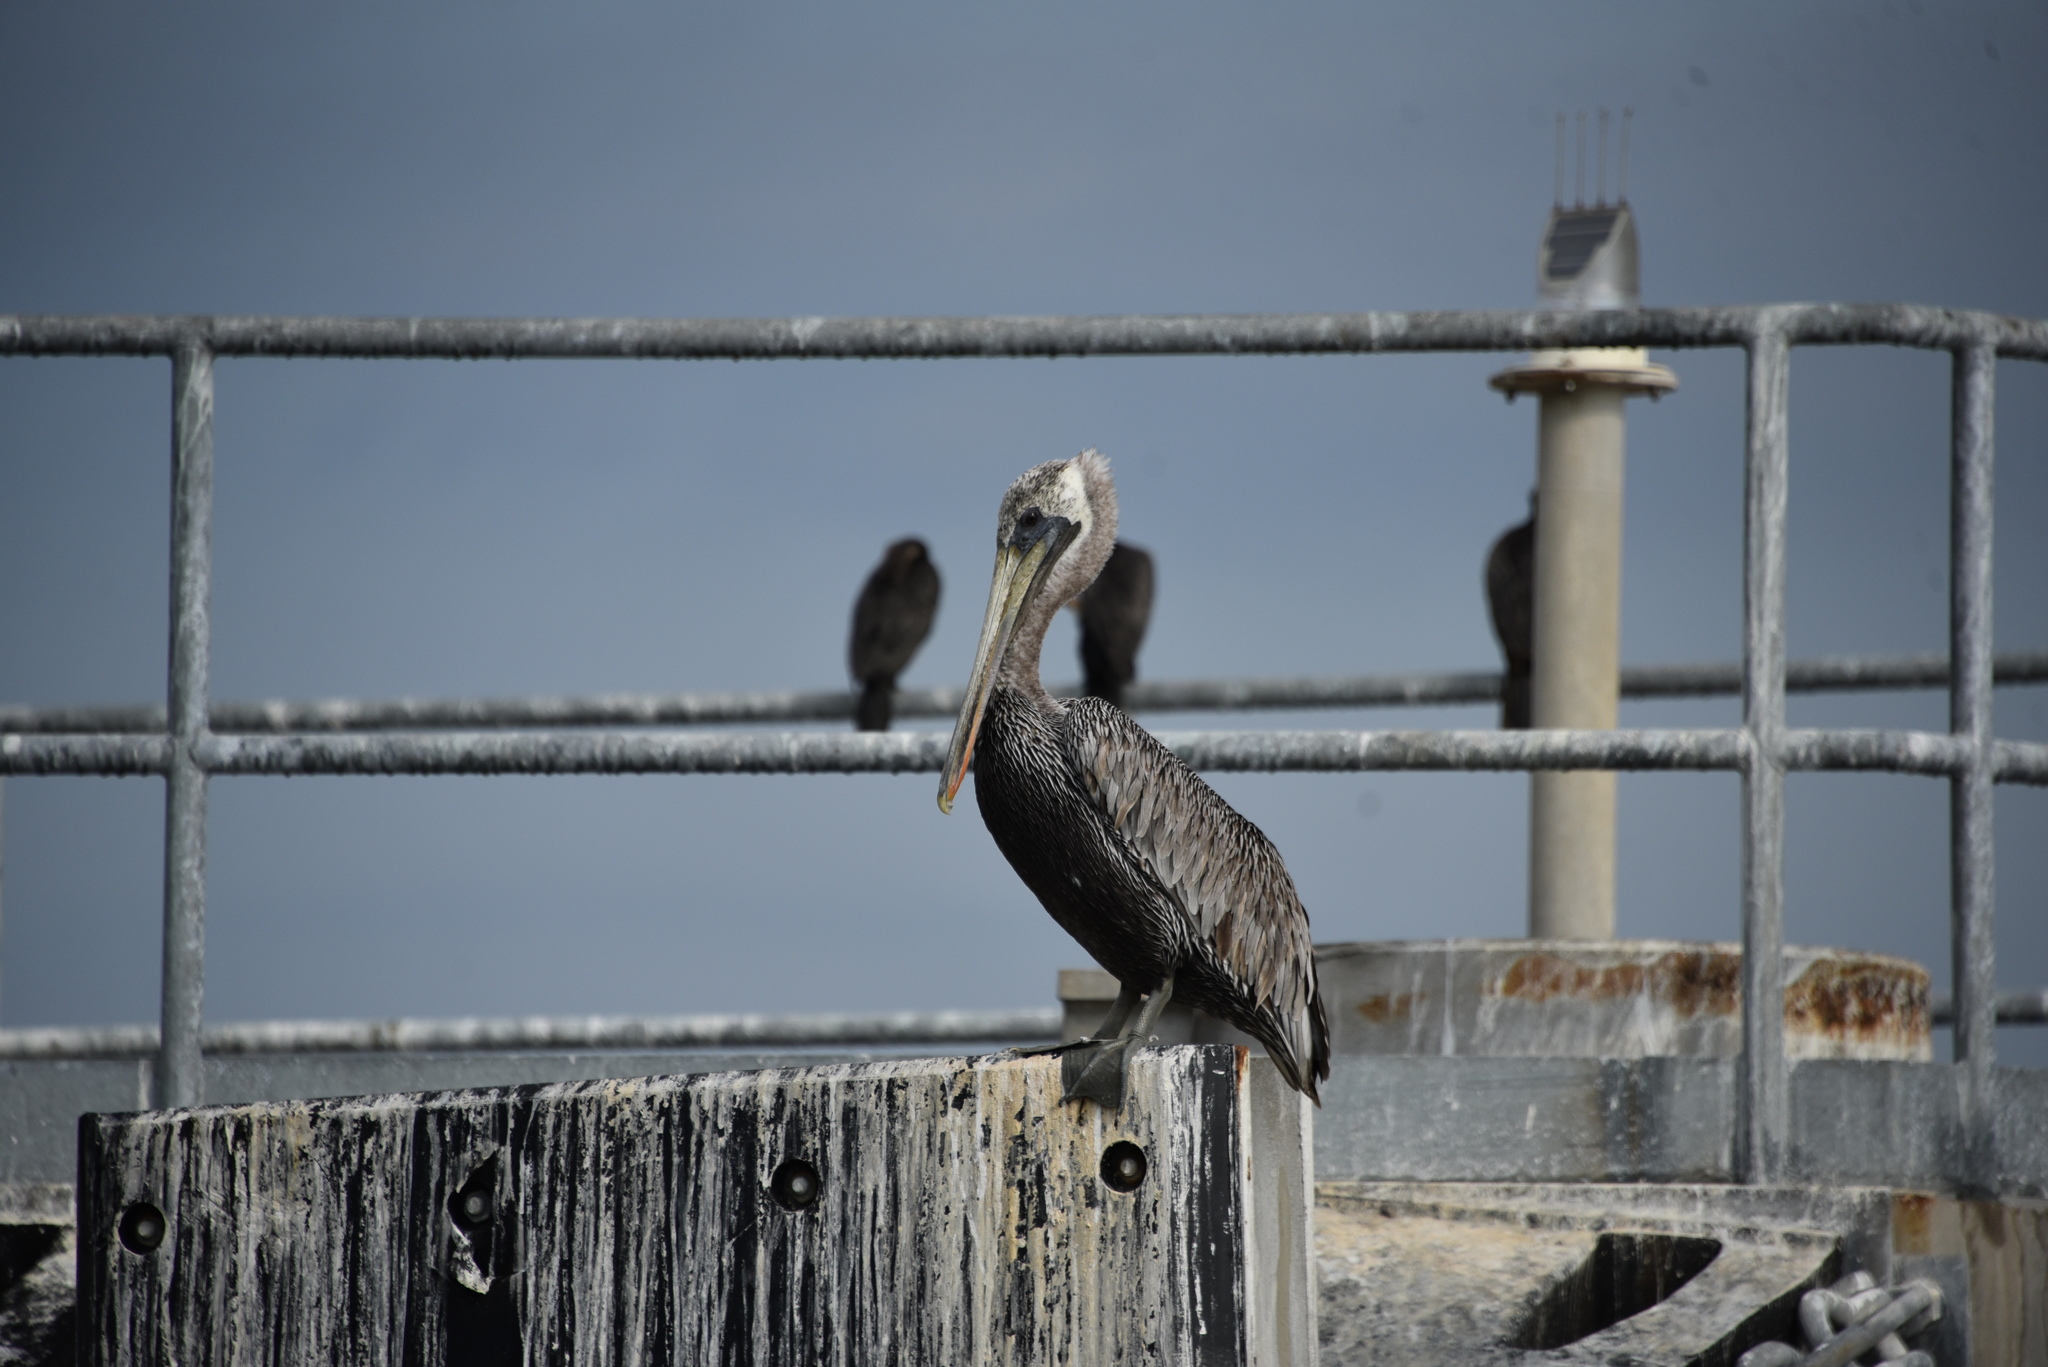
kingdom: Animalia
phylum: Chordata
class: Aves
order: Pelecaniformes
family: Pelecanidae
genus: Pelecanus
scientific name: Pelecanus occidentalis
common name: Brown pelican
